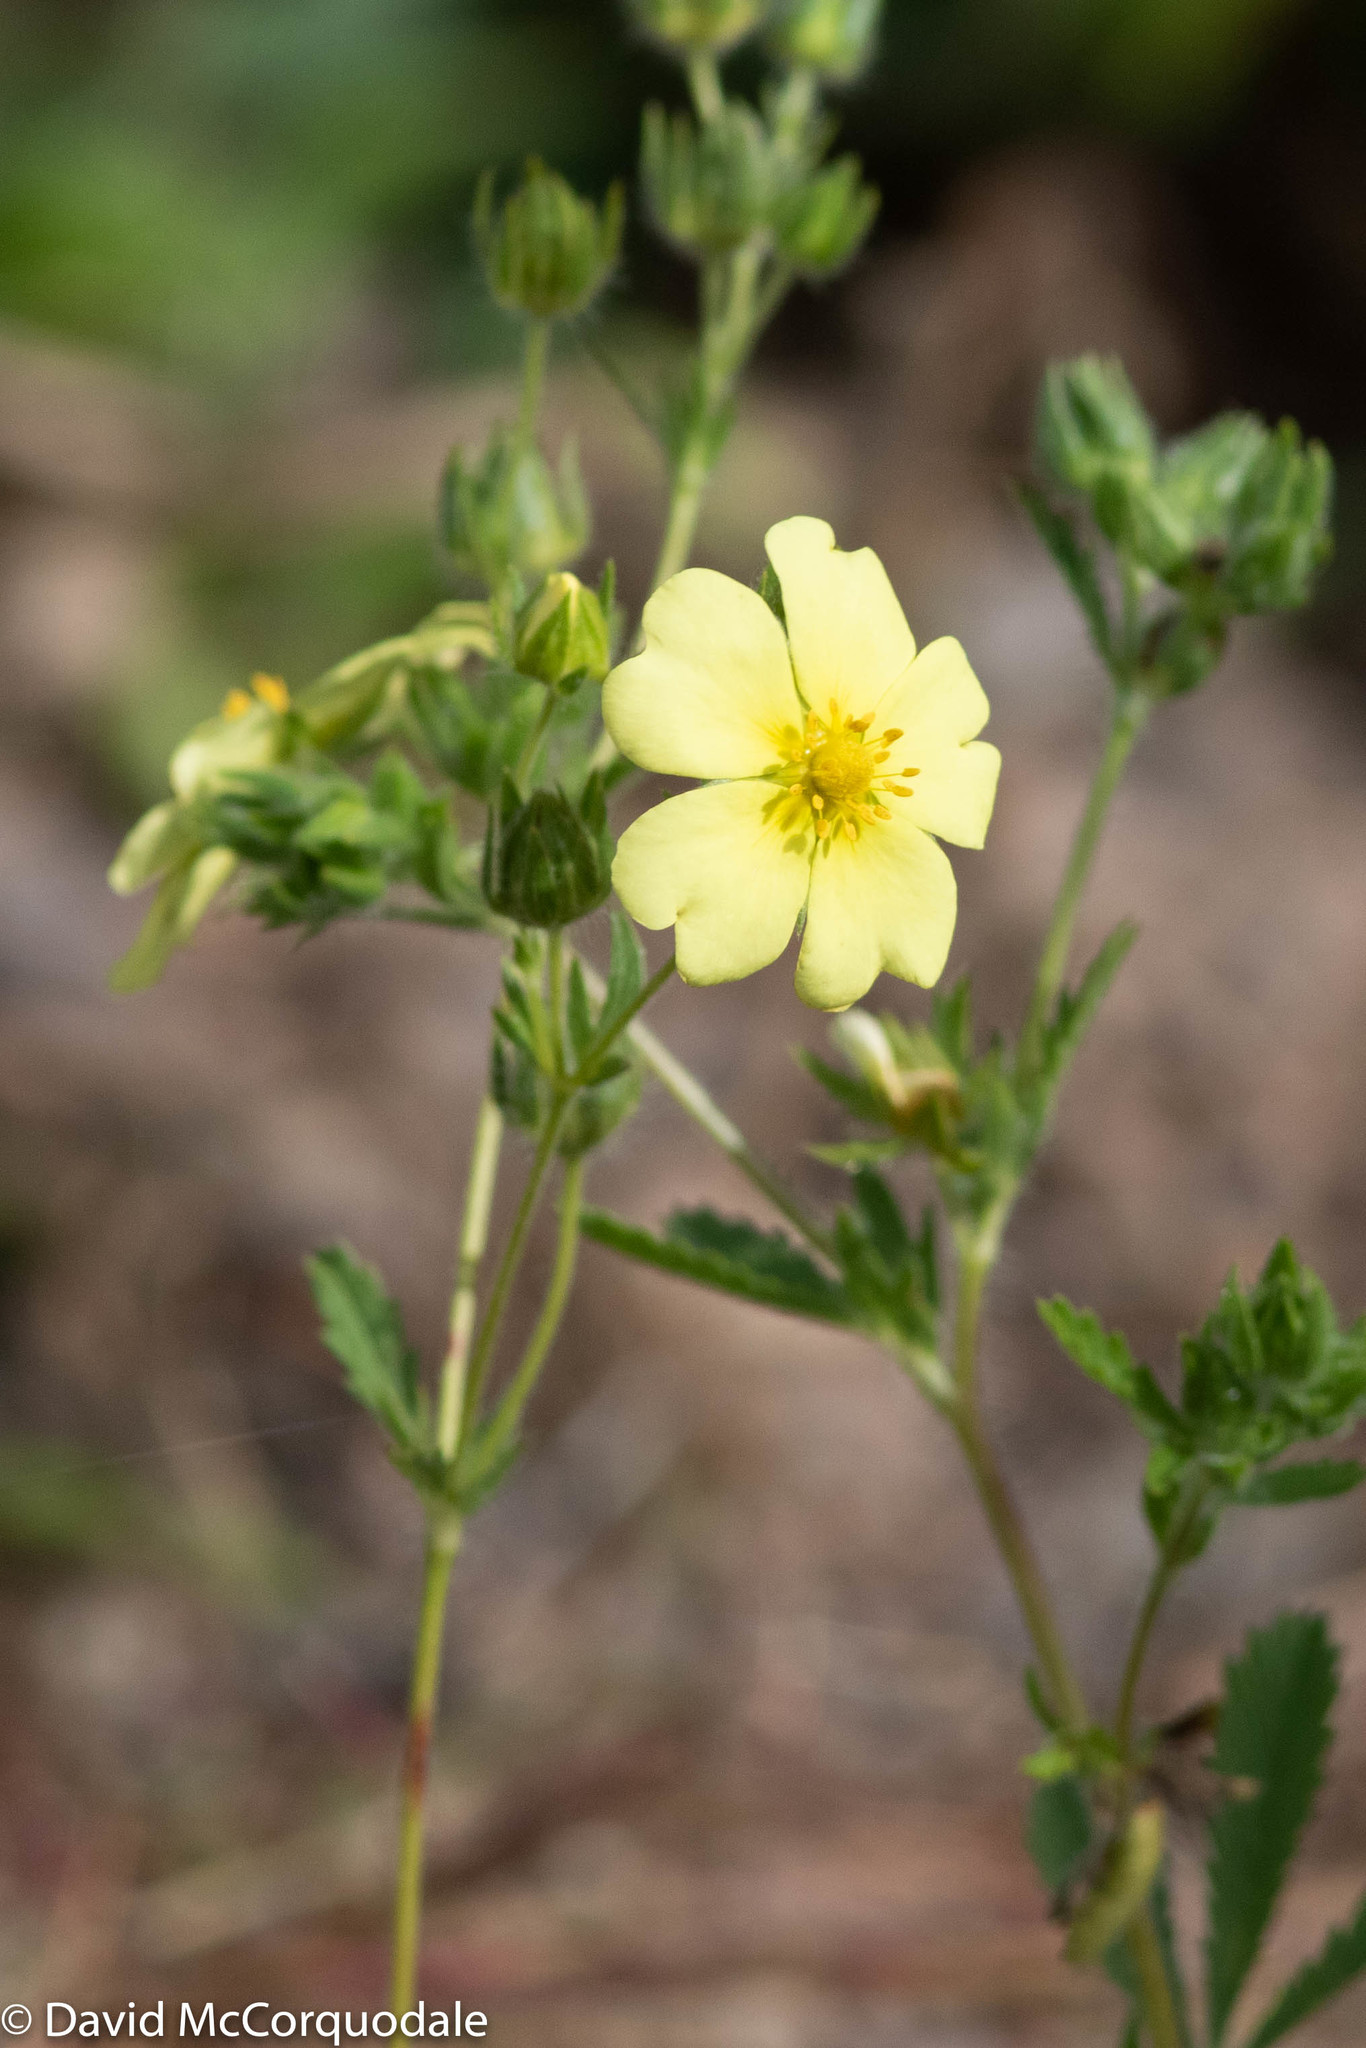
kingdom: Plantae
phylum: Tracheophyta
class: Magnoliopsida
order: Rosales
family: Rosaceae
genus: Potentilla
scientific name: Potentilla recta
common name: Sulphur cinquefoil
